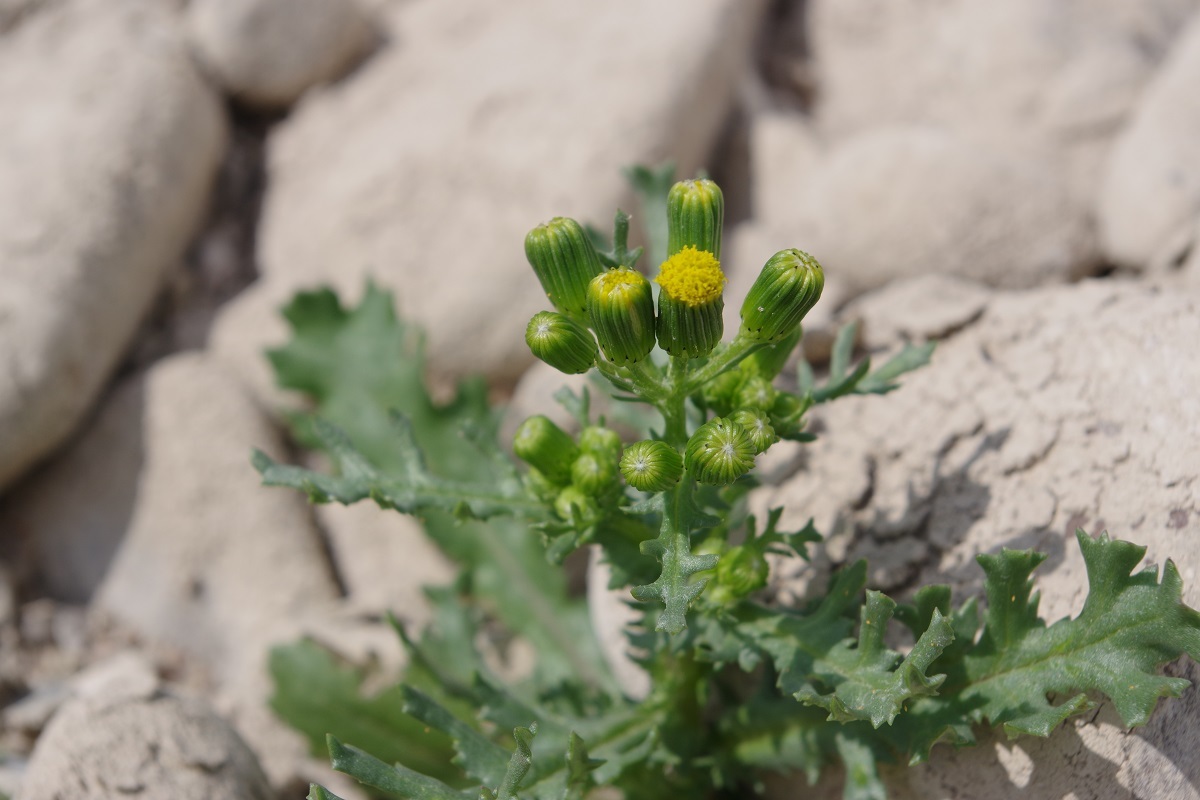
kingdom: Plantae
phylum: Tracheophyta
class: Magnoliopsida
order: Asterales
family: Asteraceae
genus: Senecio
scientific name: Senecio vulgaris
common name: Old-man-in-the-spring
